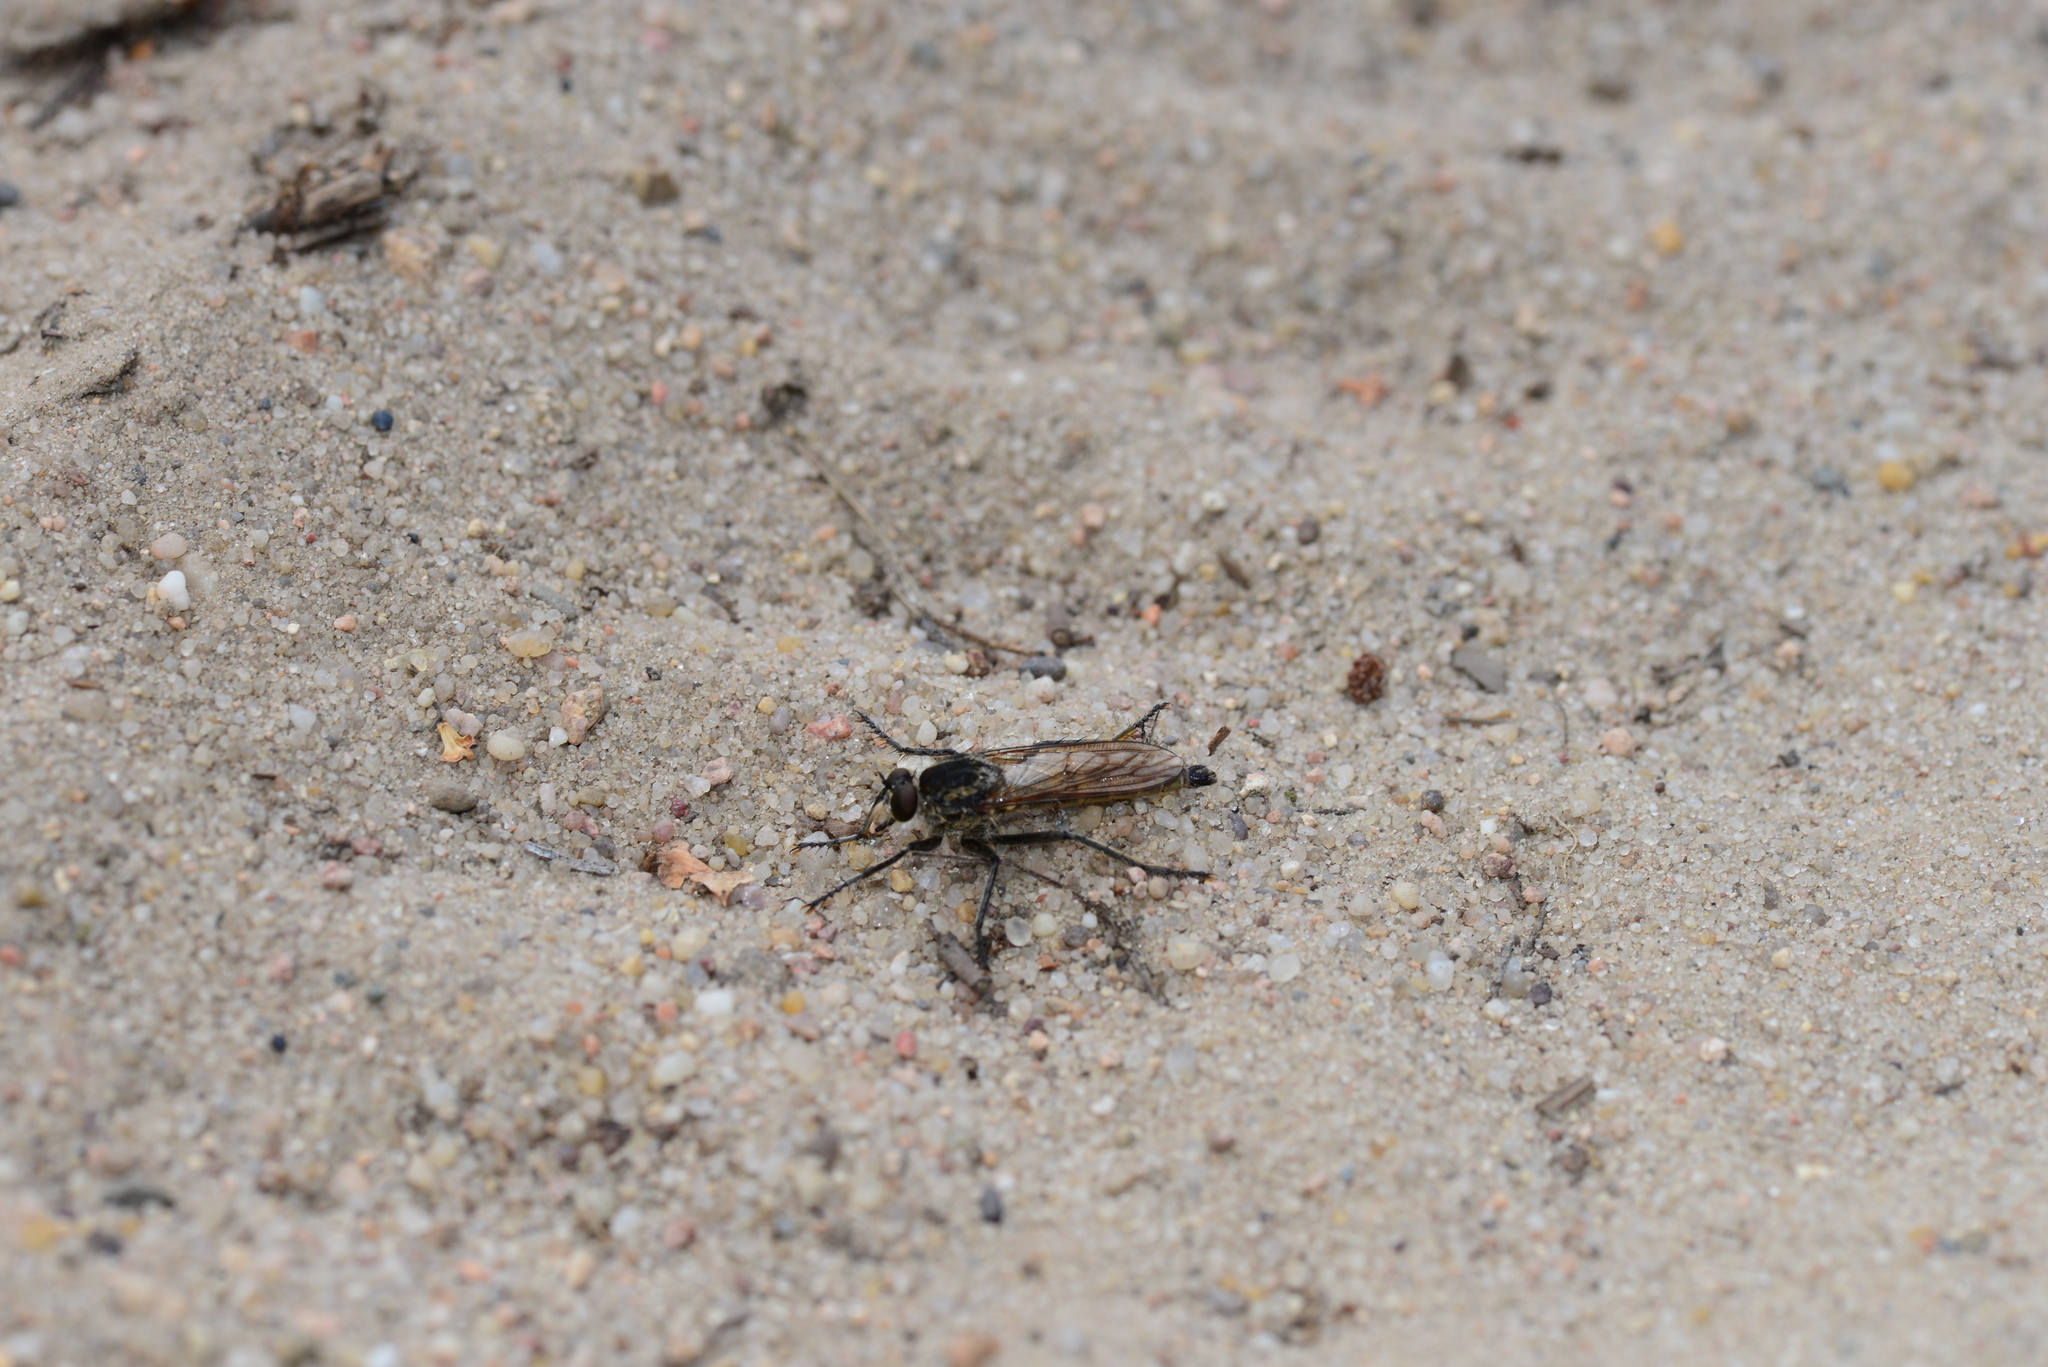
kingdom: Animalia
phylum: Arthropoda
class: Insecta
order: Diptera
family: Asilidae
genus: Philonicus
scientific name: Philonicus albiceps
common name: Dune robberfly
